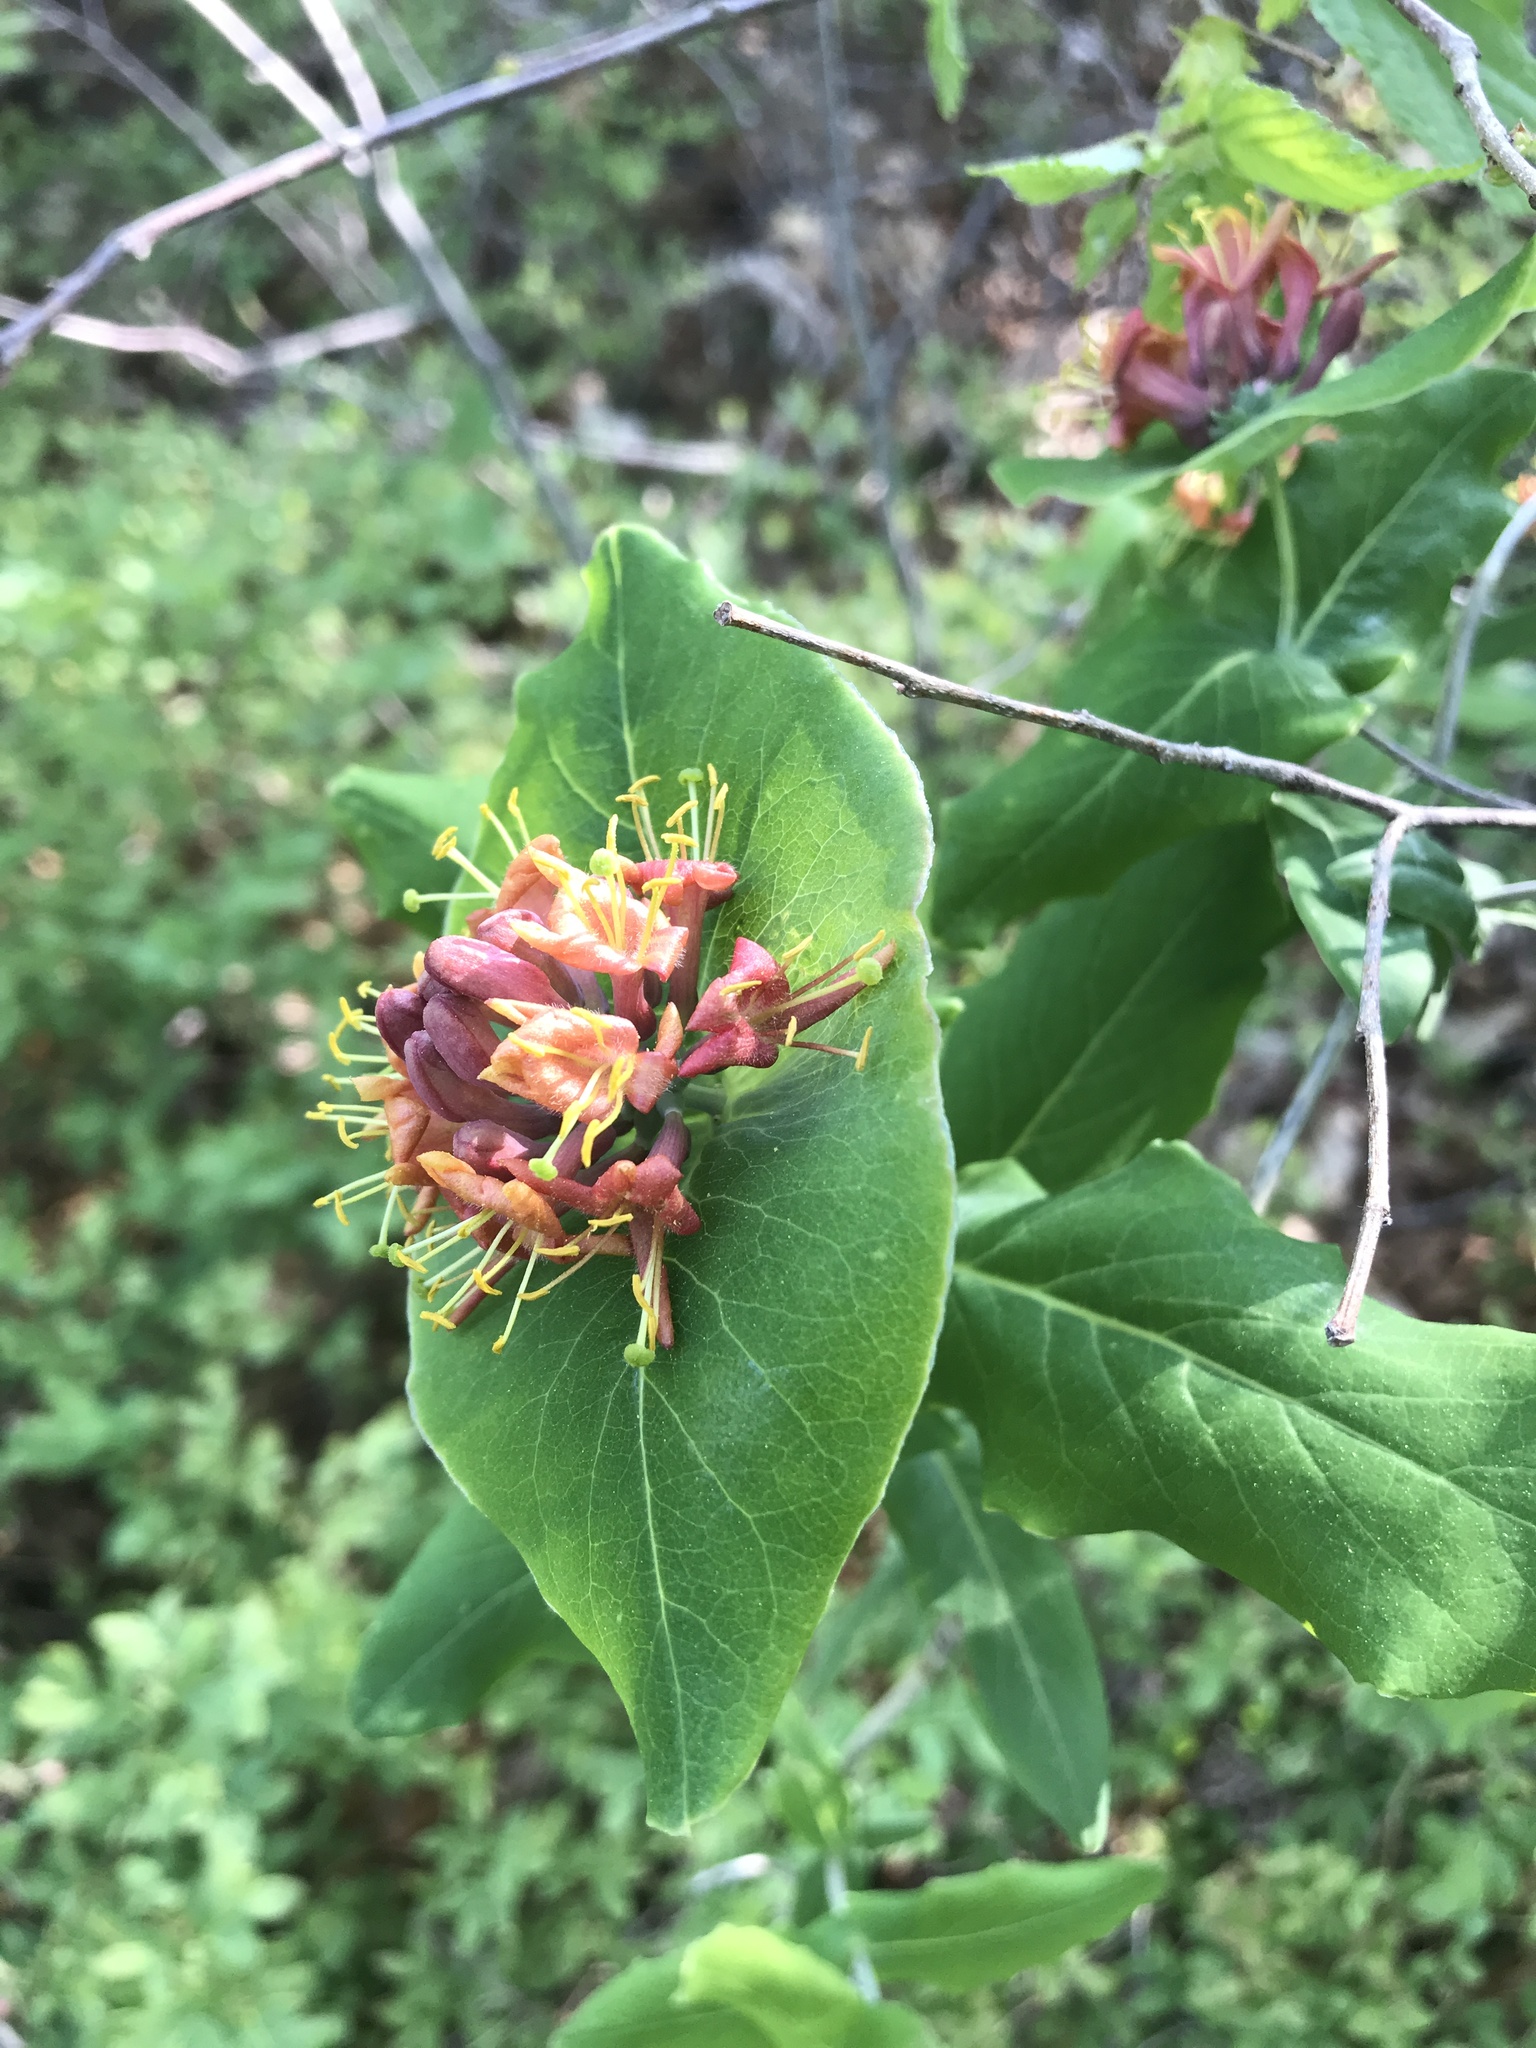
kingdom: Plantae
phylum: Tracheophyta
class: Magnoliopsida
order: Dipsacales
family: Caprifoliaceae
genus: Lonicera
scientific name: Lonicera dioica
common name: Limber honeysuckle
